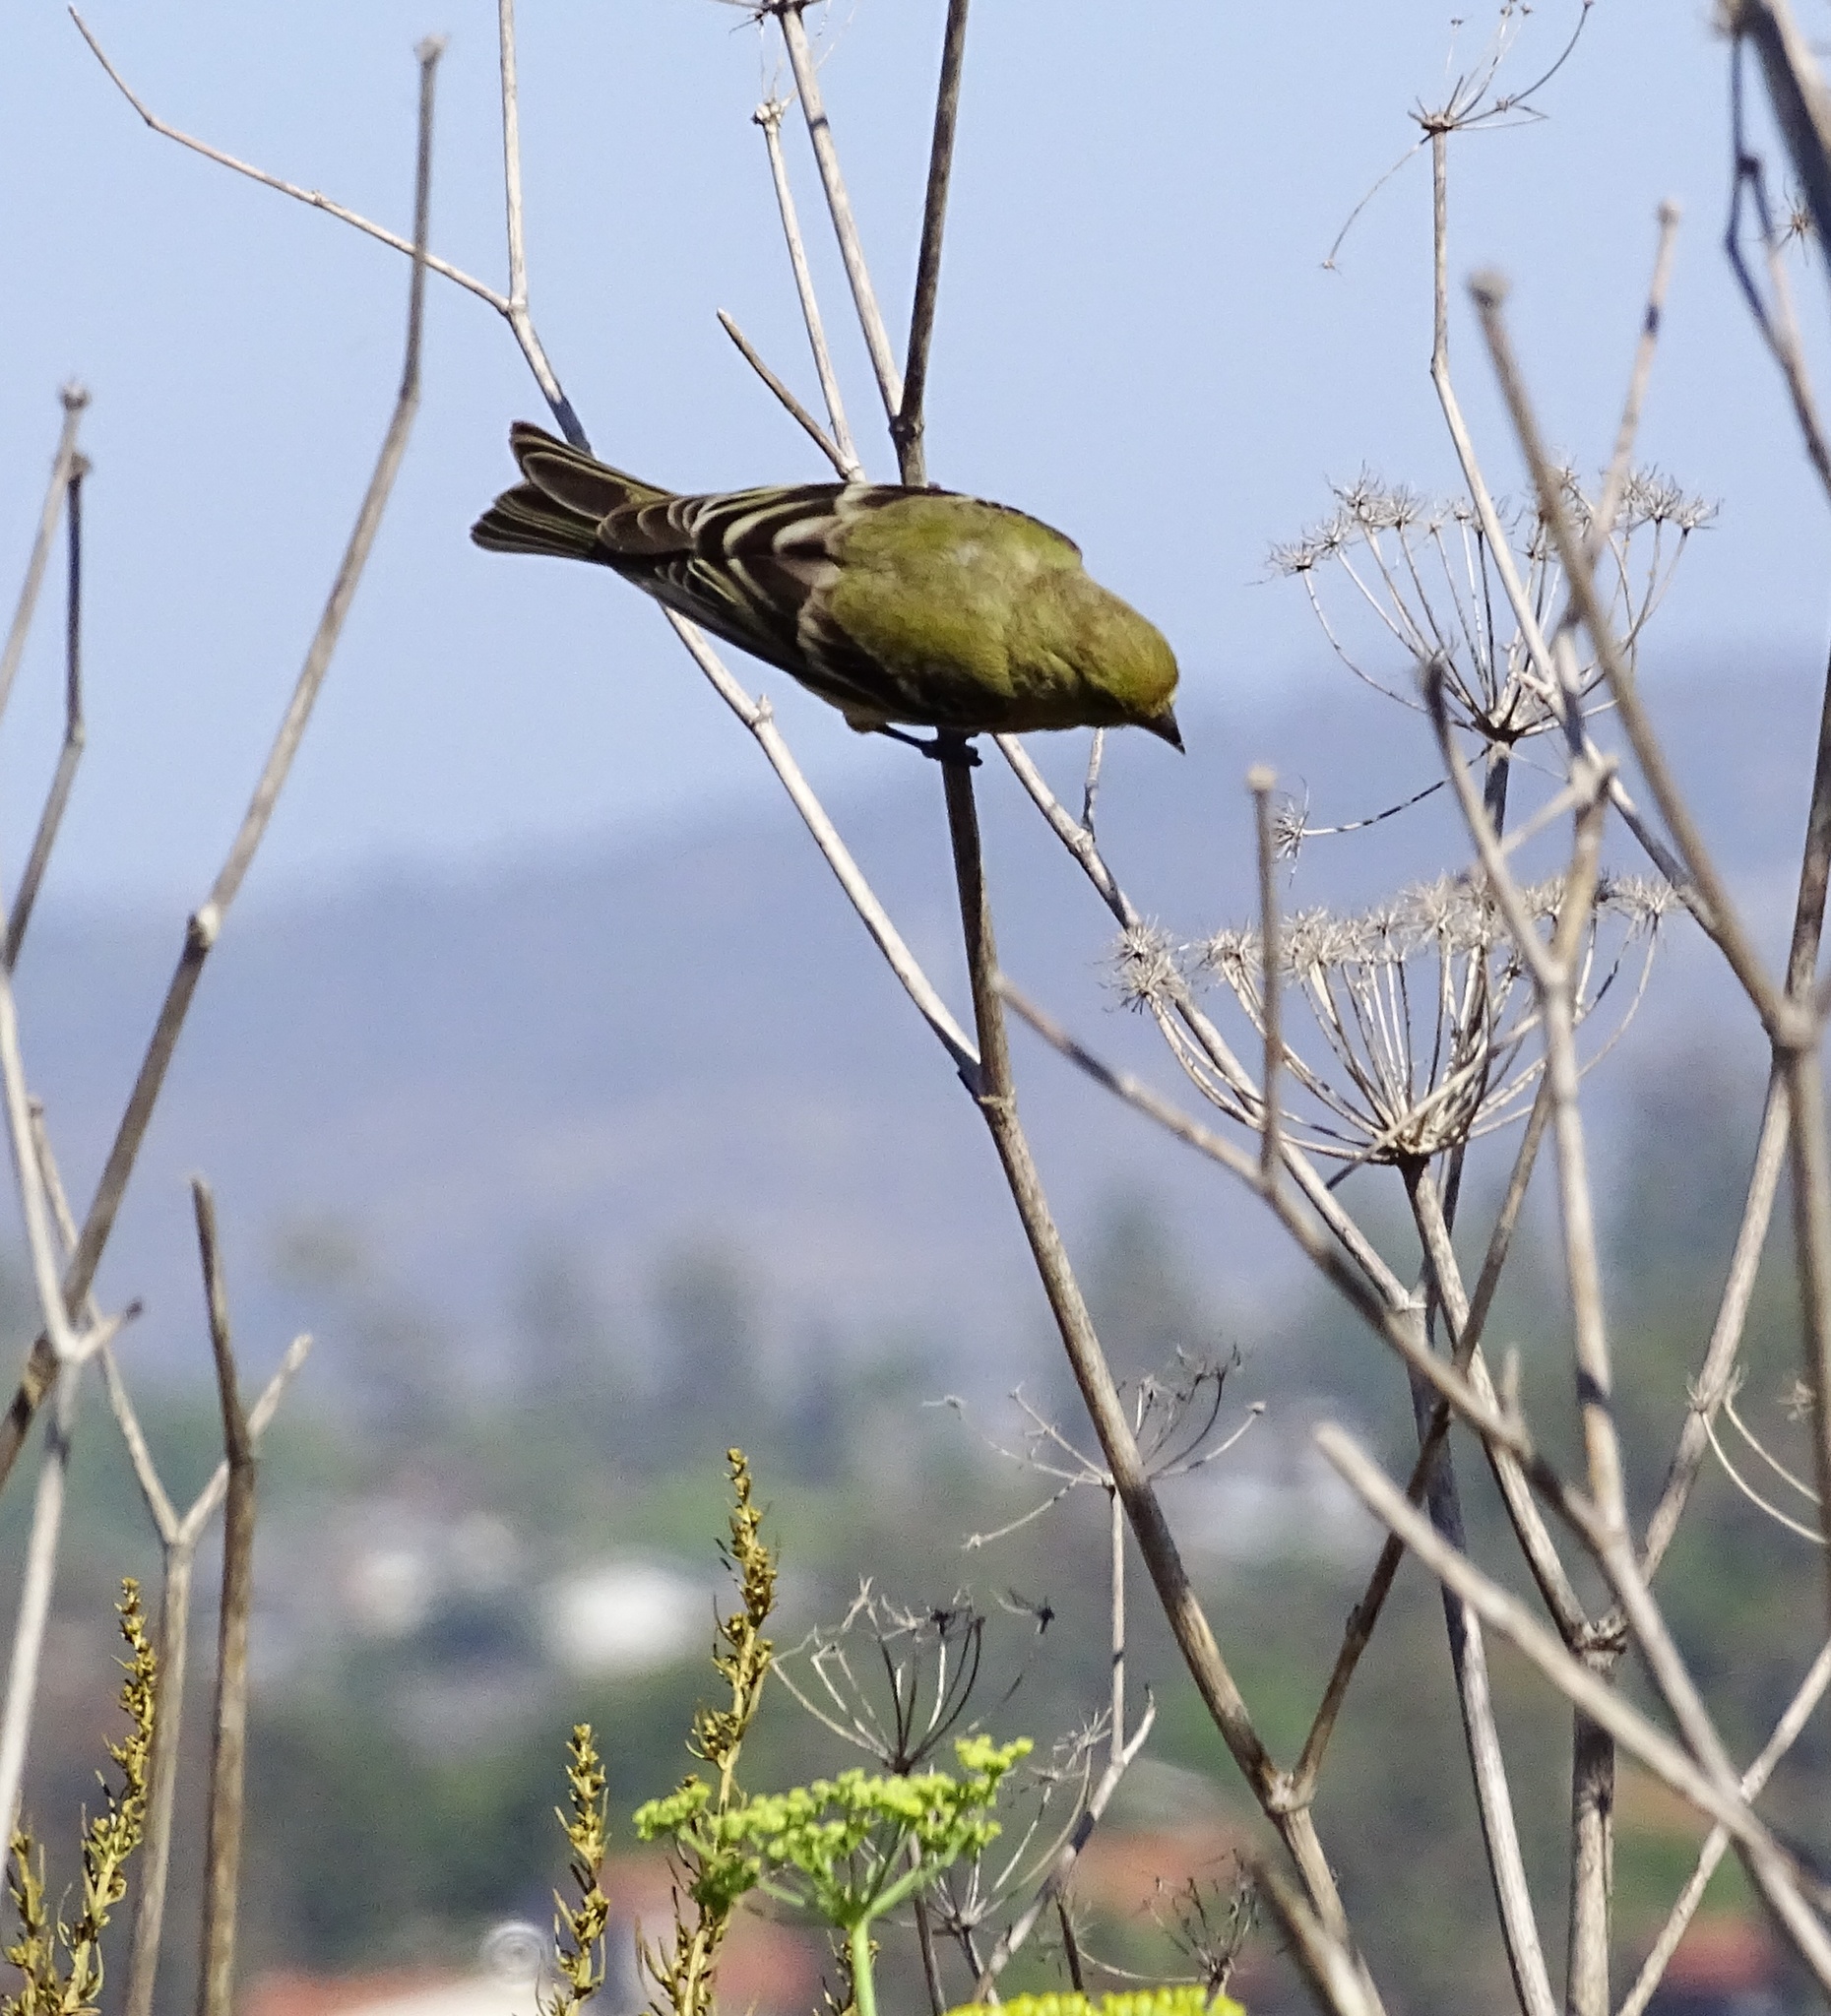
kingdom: Animalia
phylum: Chordata
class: Aves
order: Passeriformes
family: Fringillidae
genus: Spinus
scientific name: Spinus psaltria
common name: Lesser goldfinch
